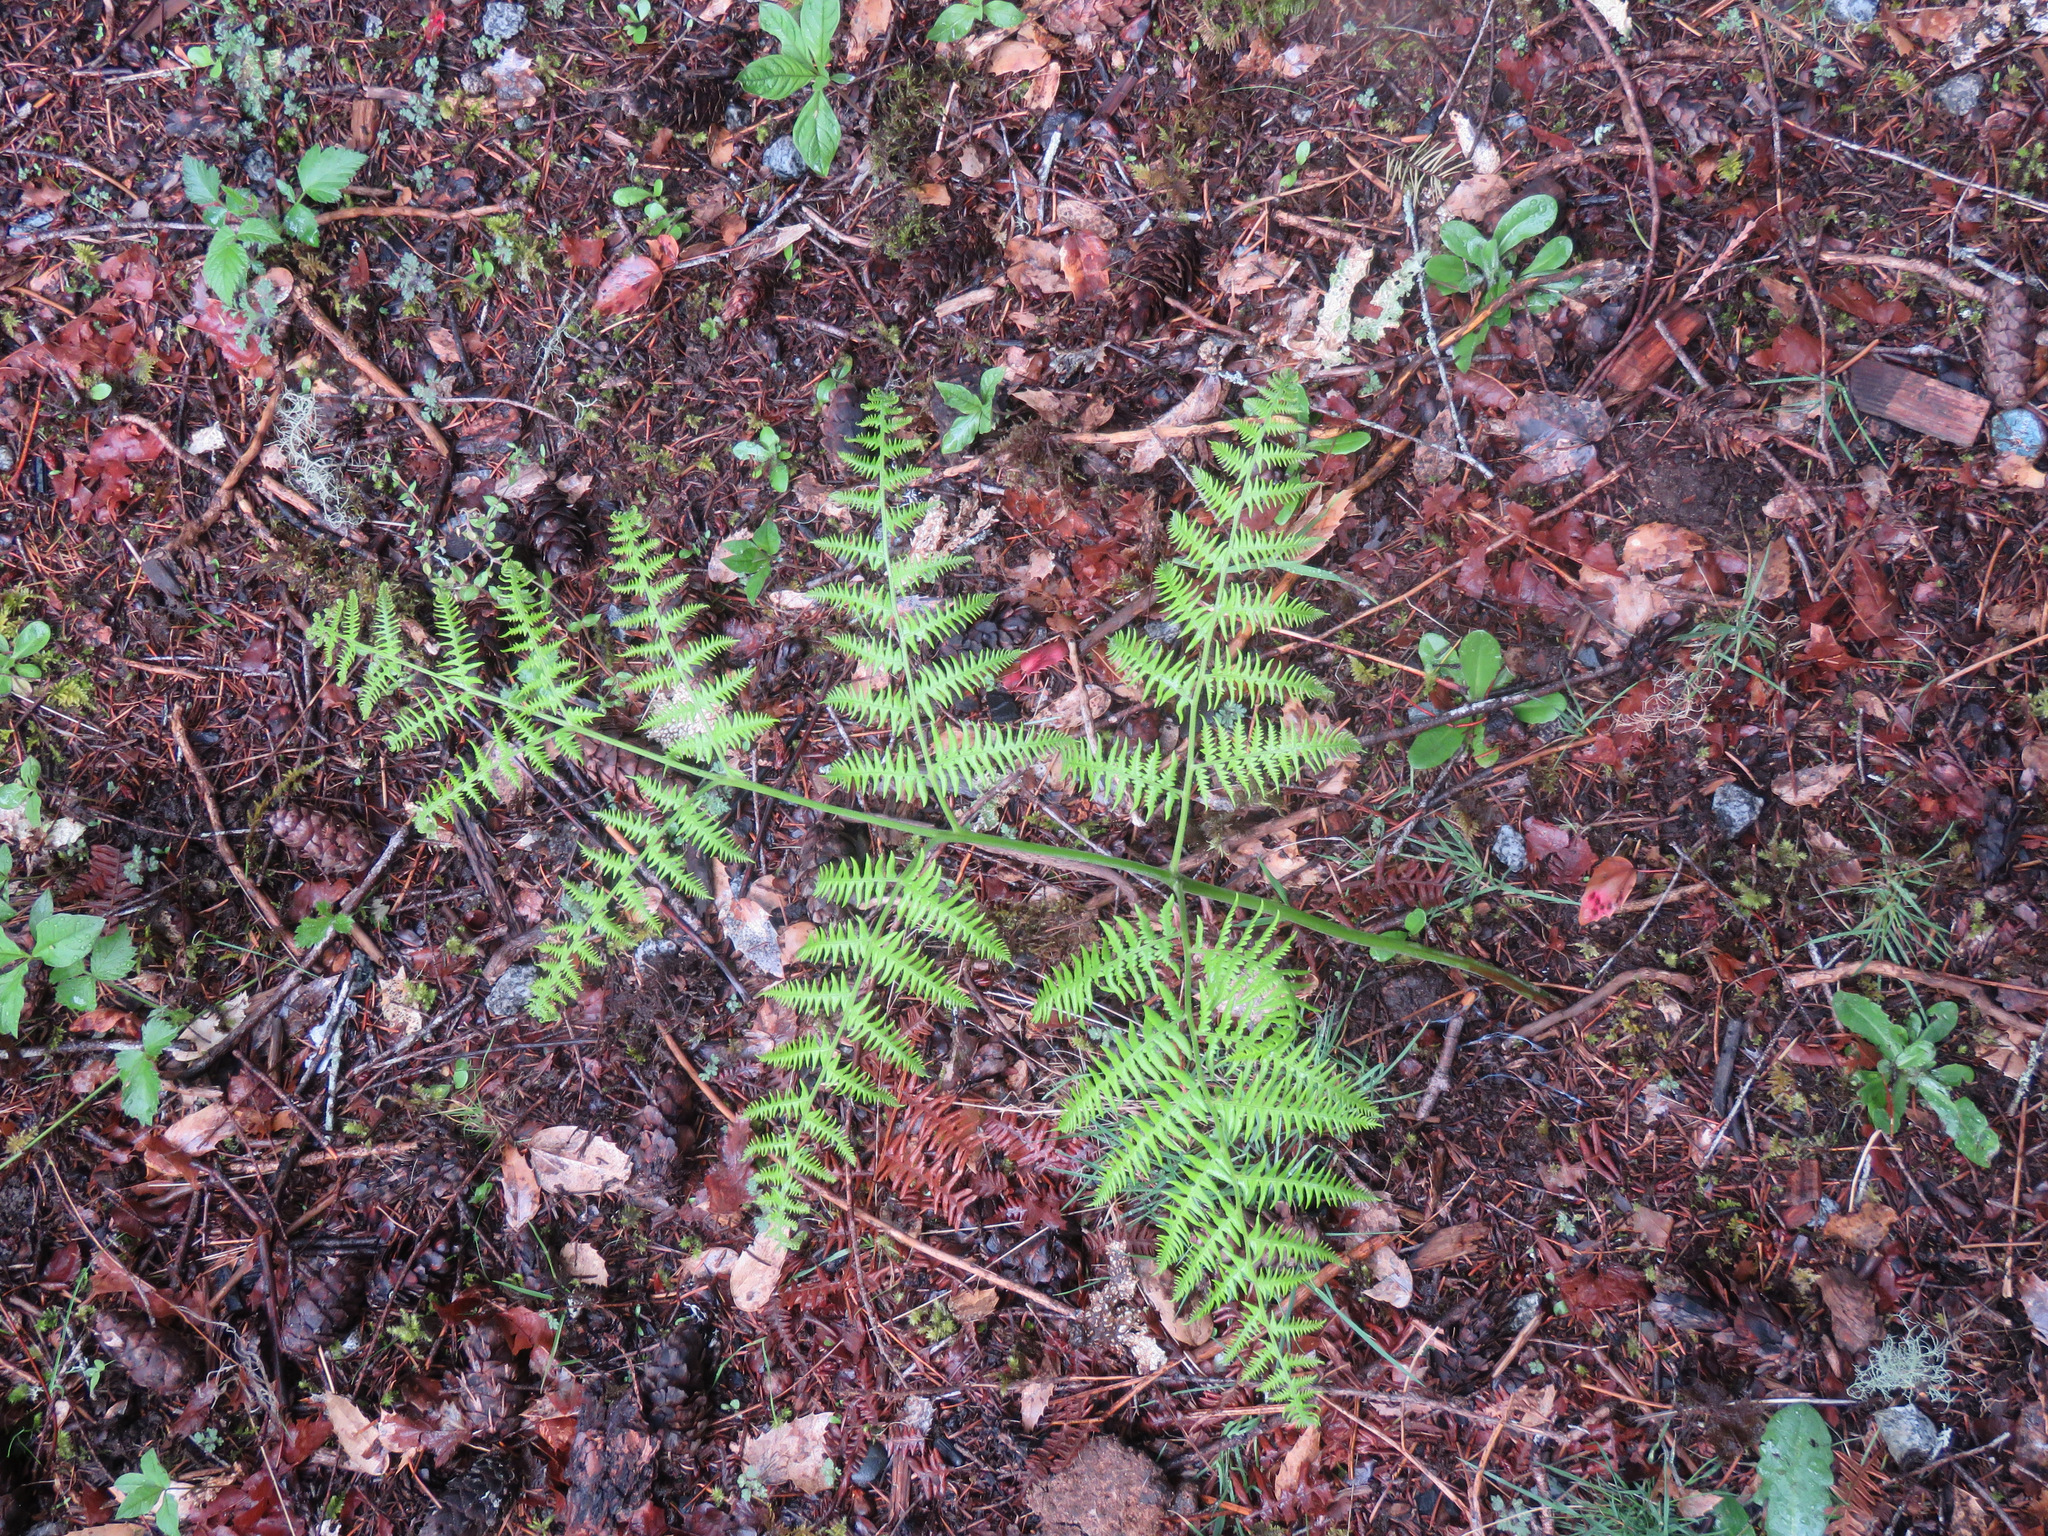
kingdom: Plantae
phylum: Tracheophyta
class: Polypodiopsida
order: Polypodiales
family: Dennstaedtiaceae
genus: Pteridium
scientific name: Pteridium aquilinum
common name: Bracken
